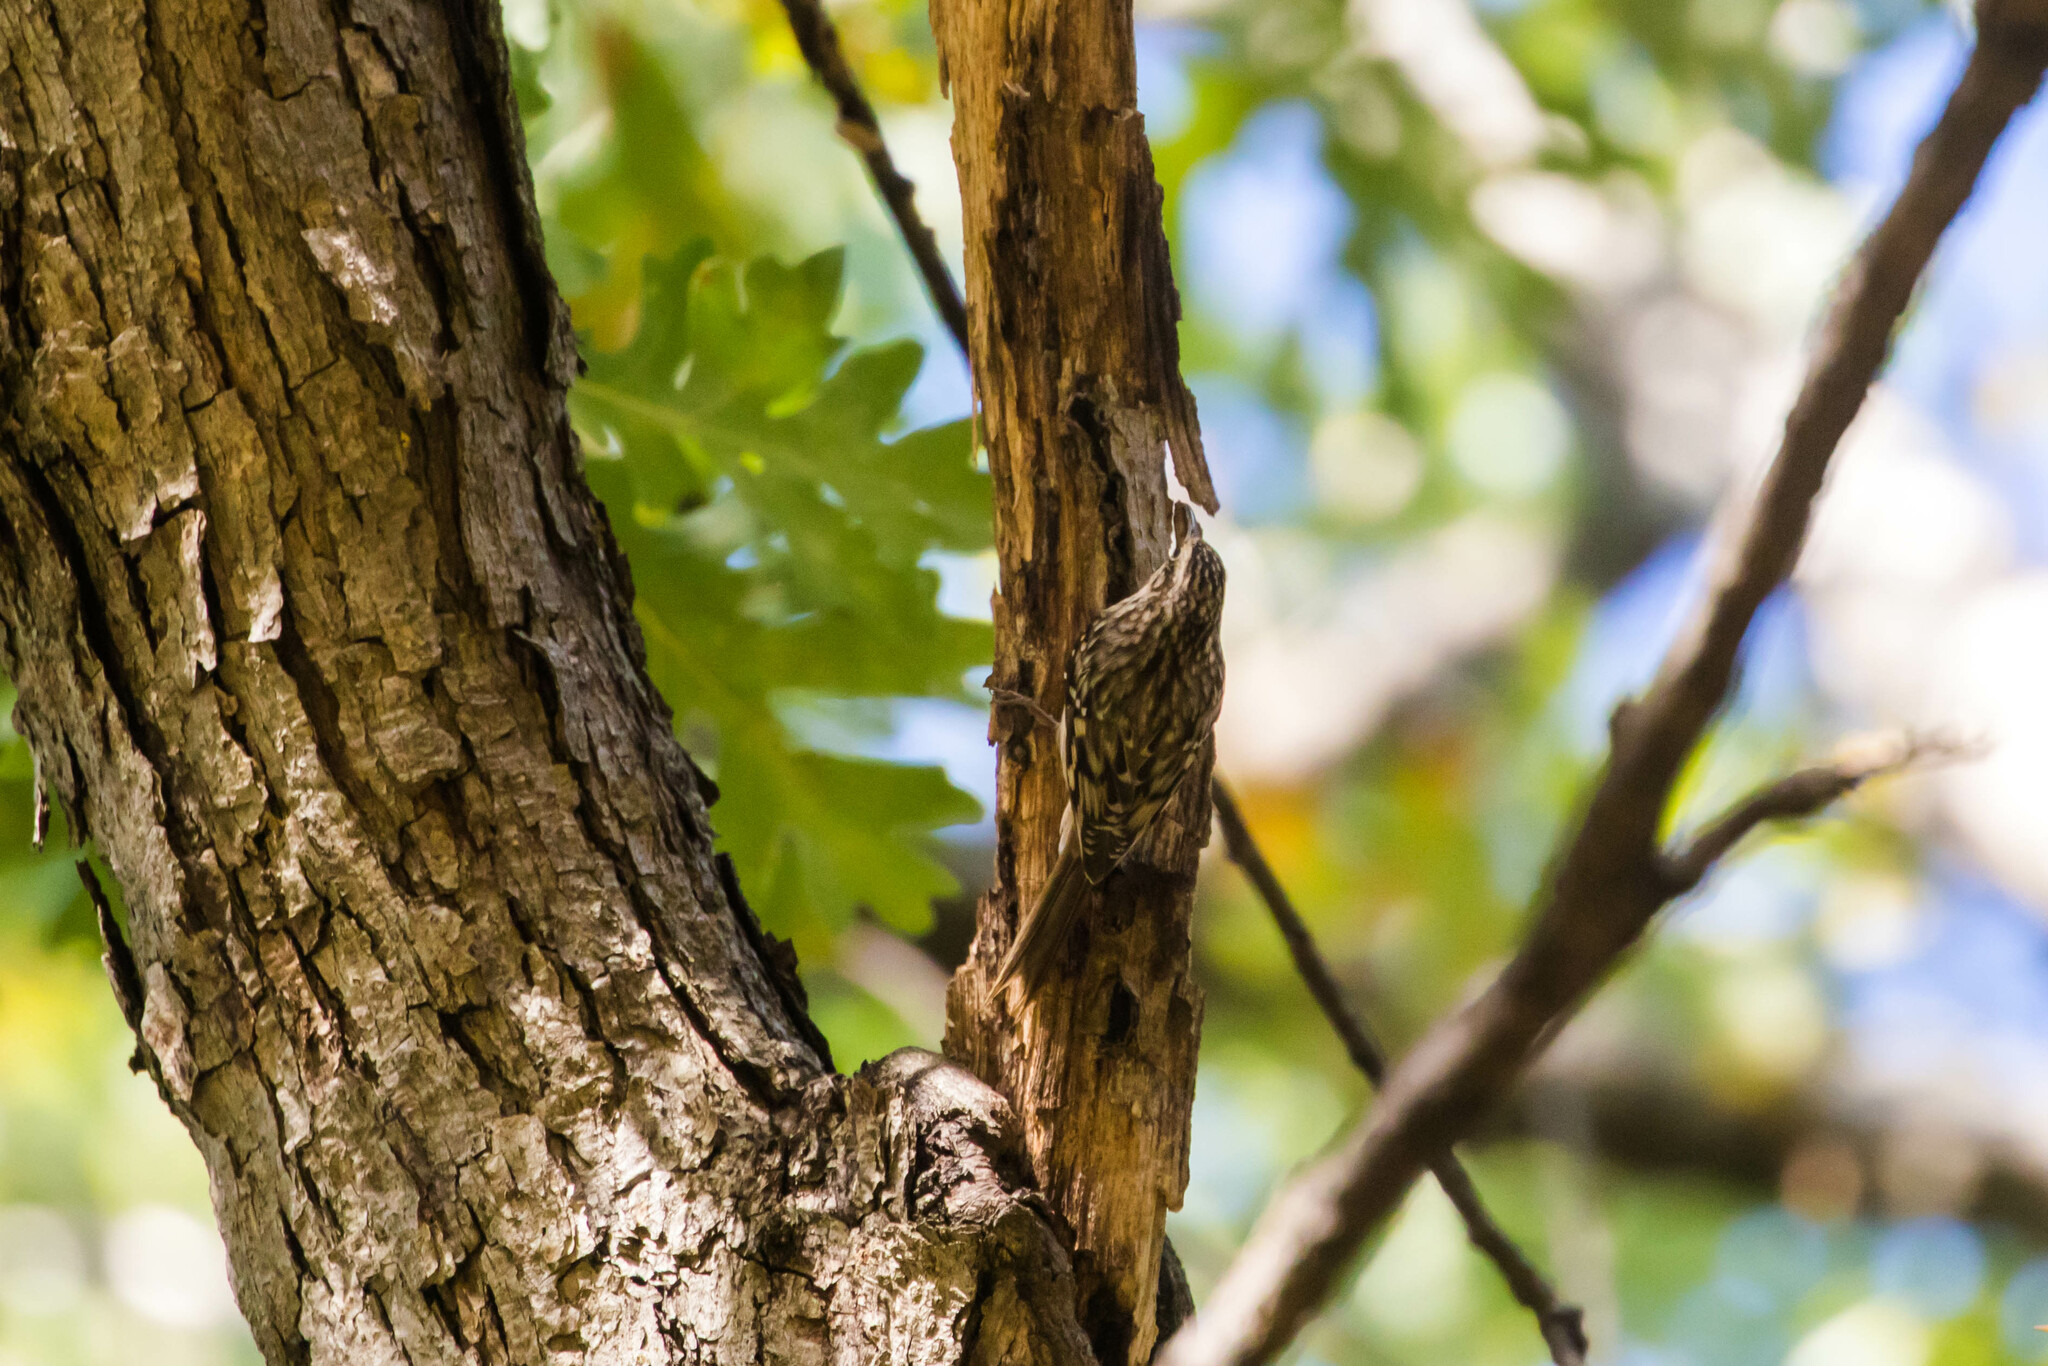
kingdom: Animalia
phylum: Chordata
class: Aves
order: Passeriformes
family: Certhiidae
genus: Certhia
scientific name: Certhia americana
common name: Brown creeper
